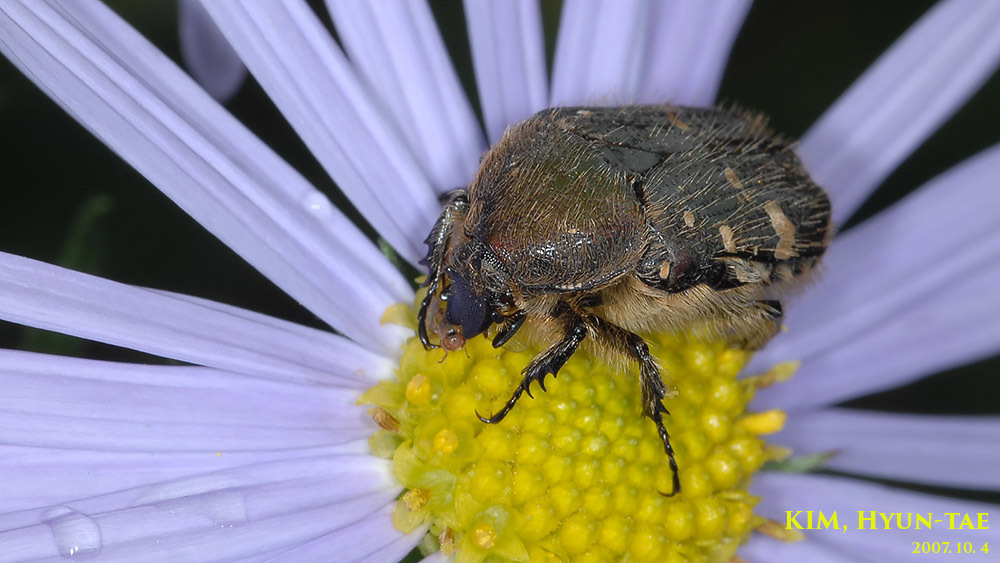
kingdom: Animalia
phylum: Arthropoda
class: Insecta
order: Coleoptera
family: Scarabaeidae
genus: Gametis
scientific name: Gametis jucunda
